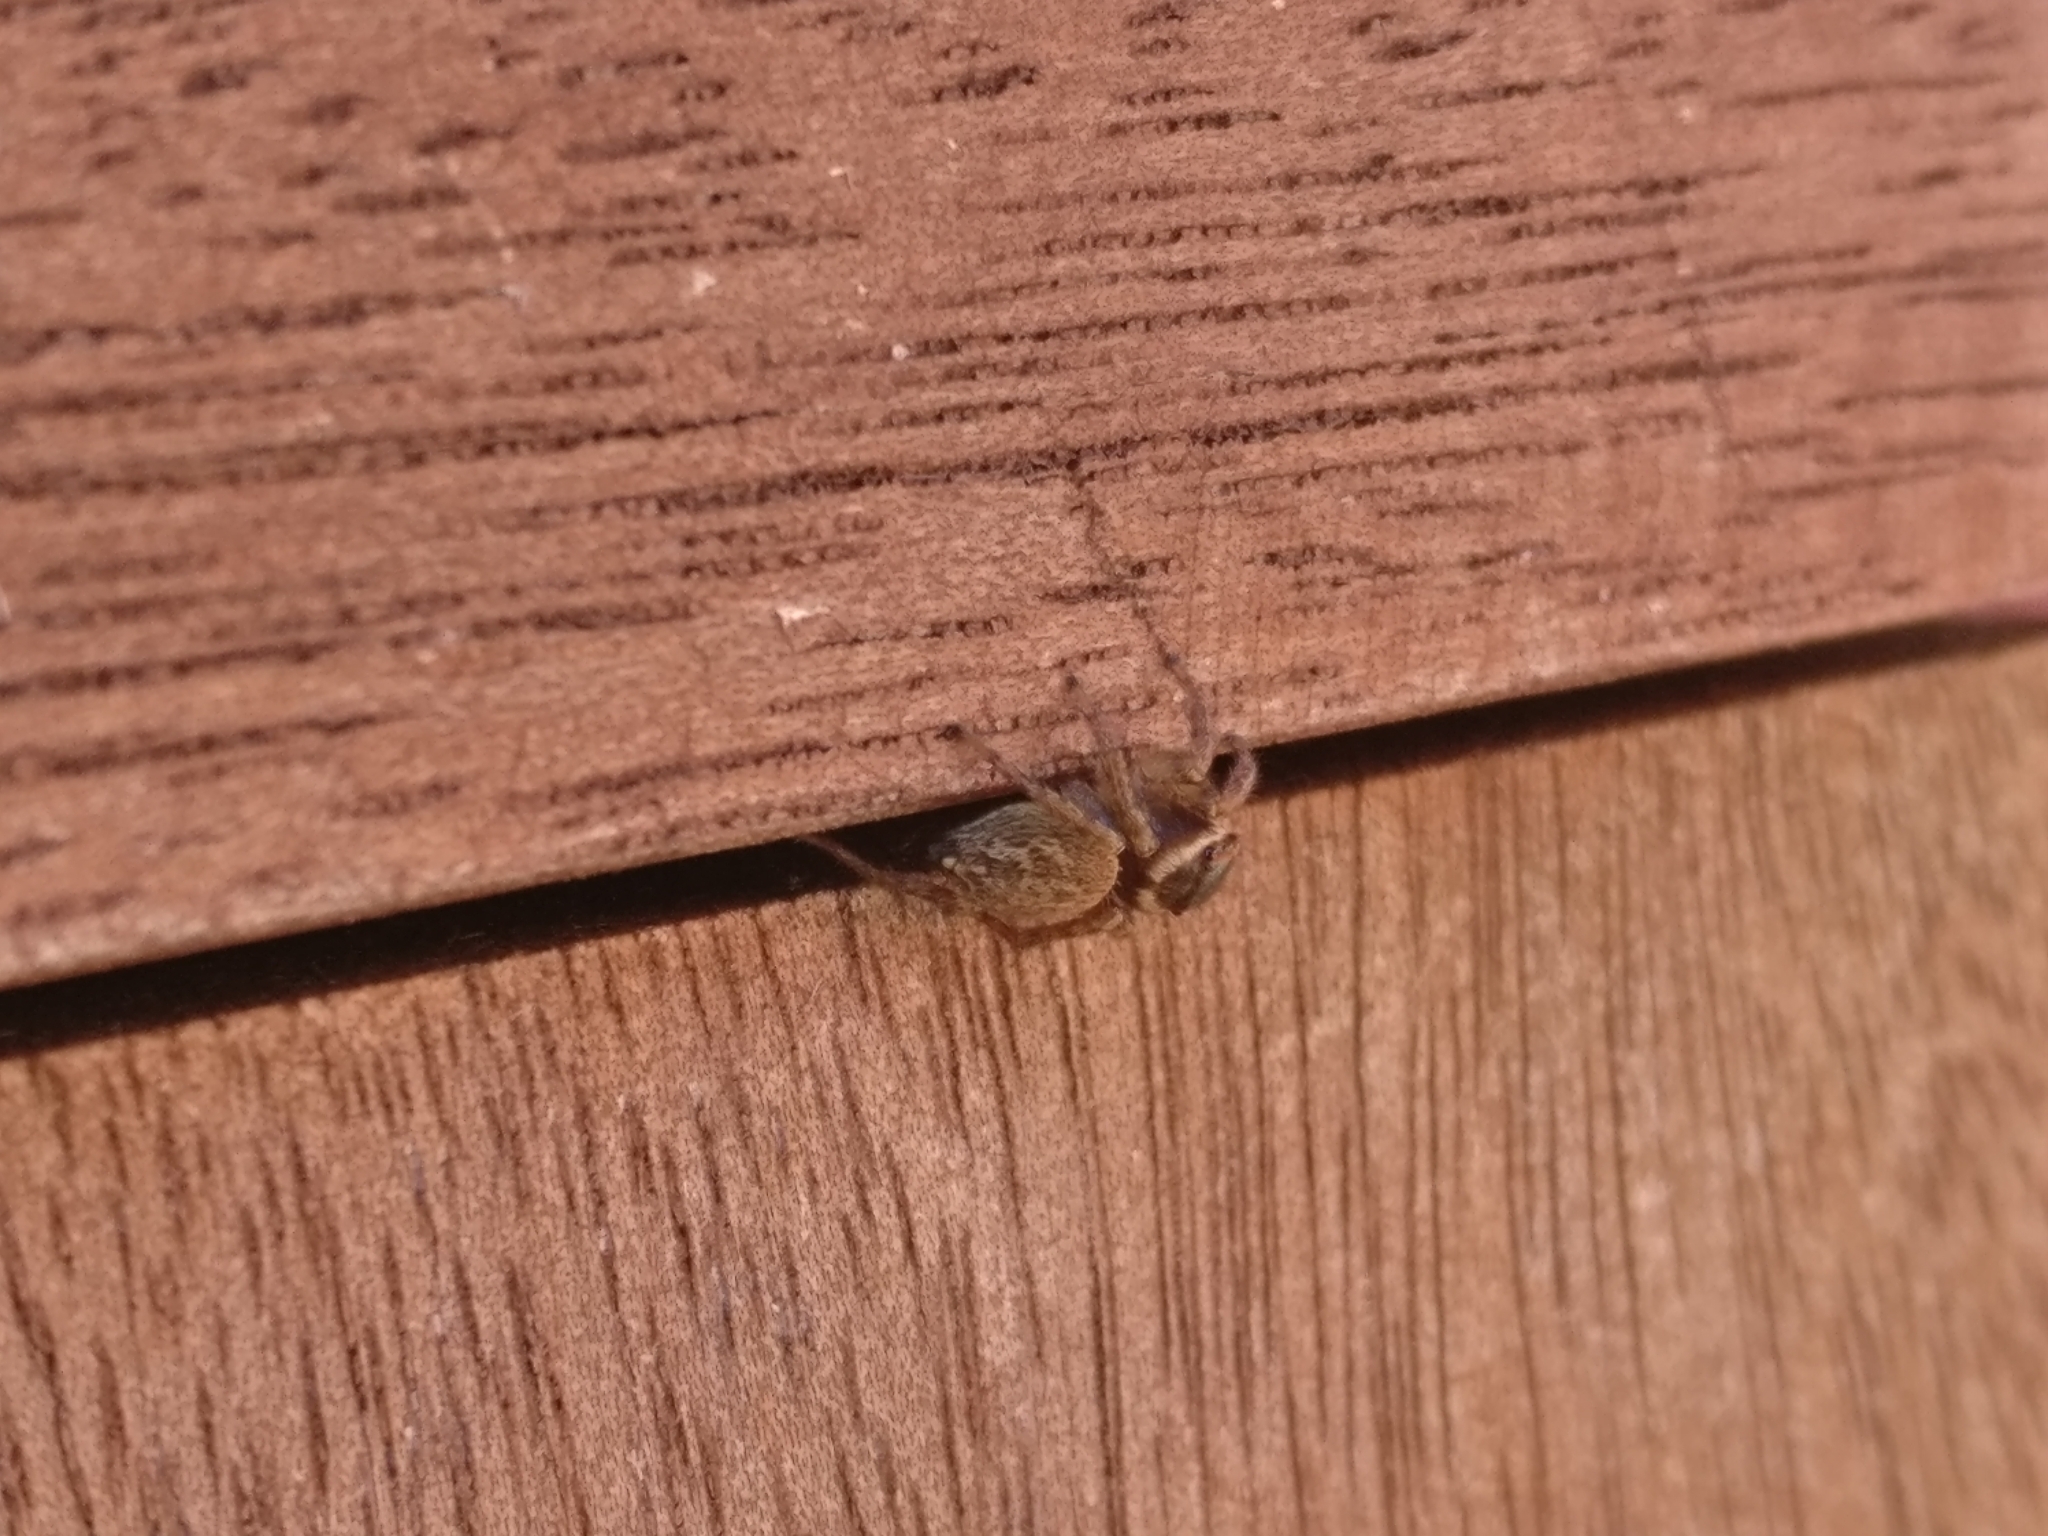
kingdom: Animalia
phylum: Arthropoda
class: Arachnida
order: Araneae
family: Salticidae
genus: Maratus
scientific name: Maratus griseus
